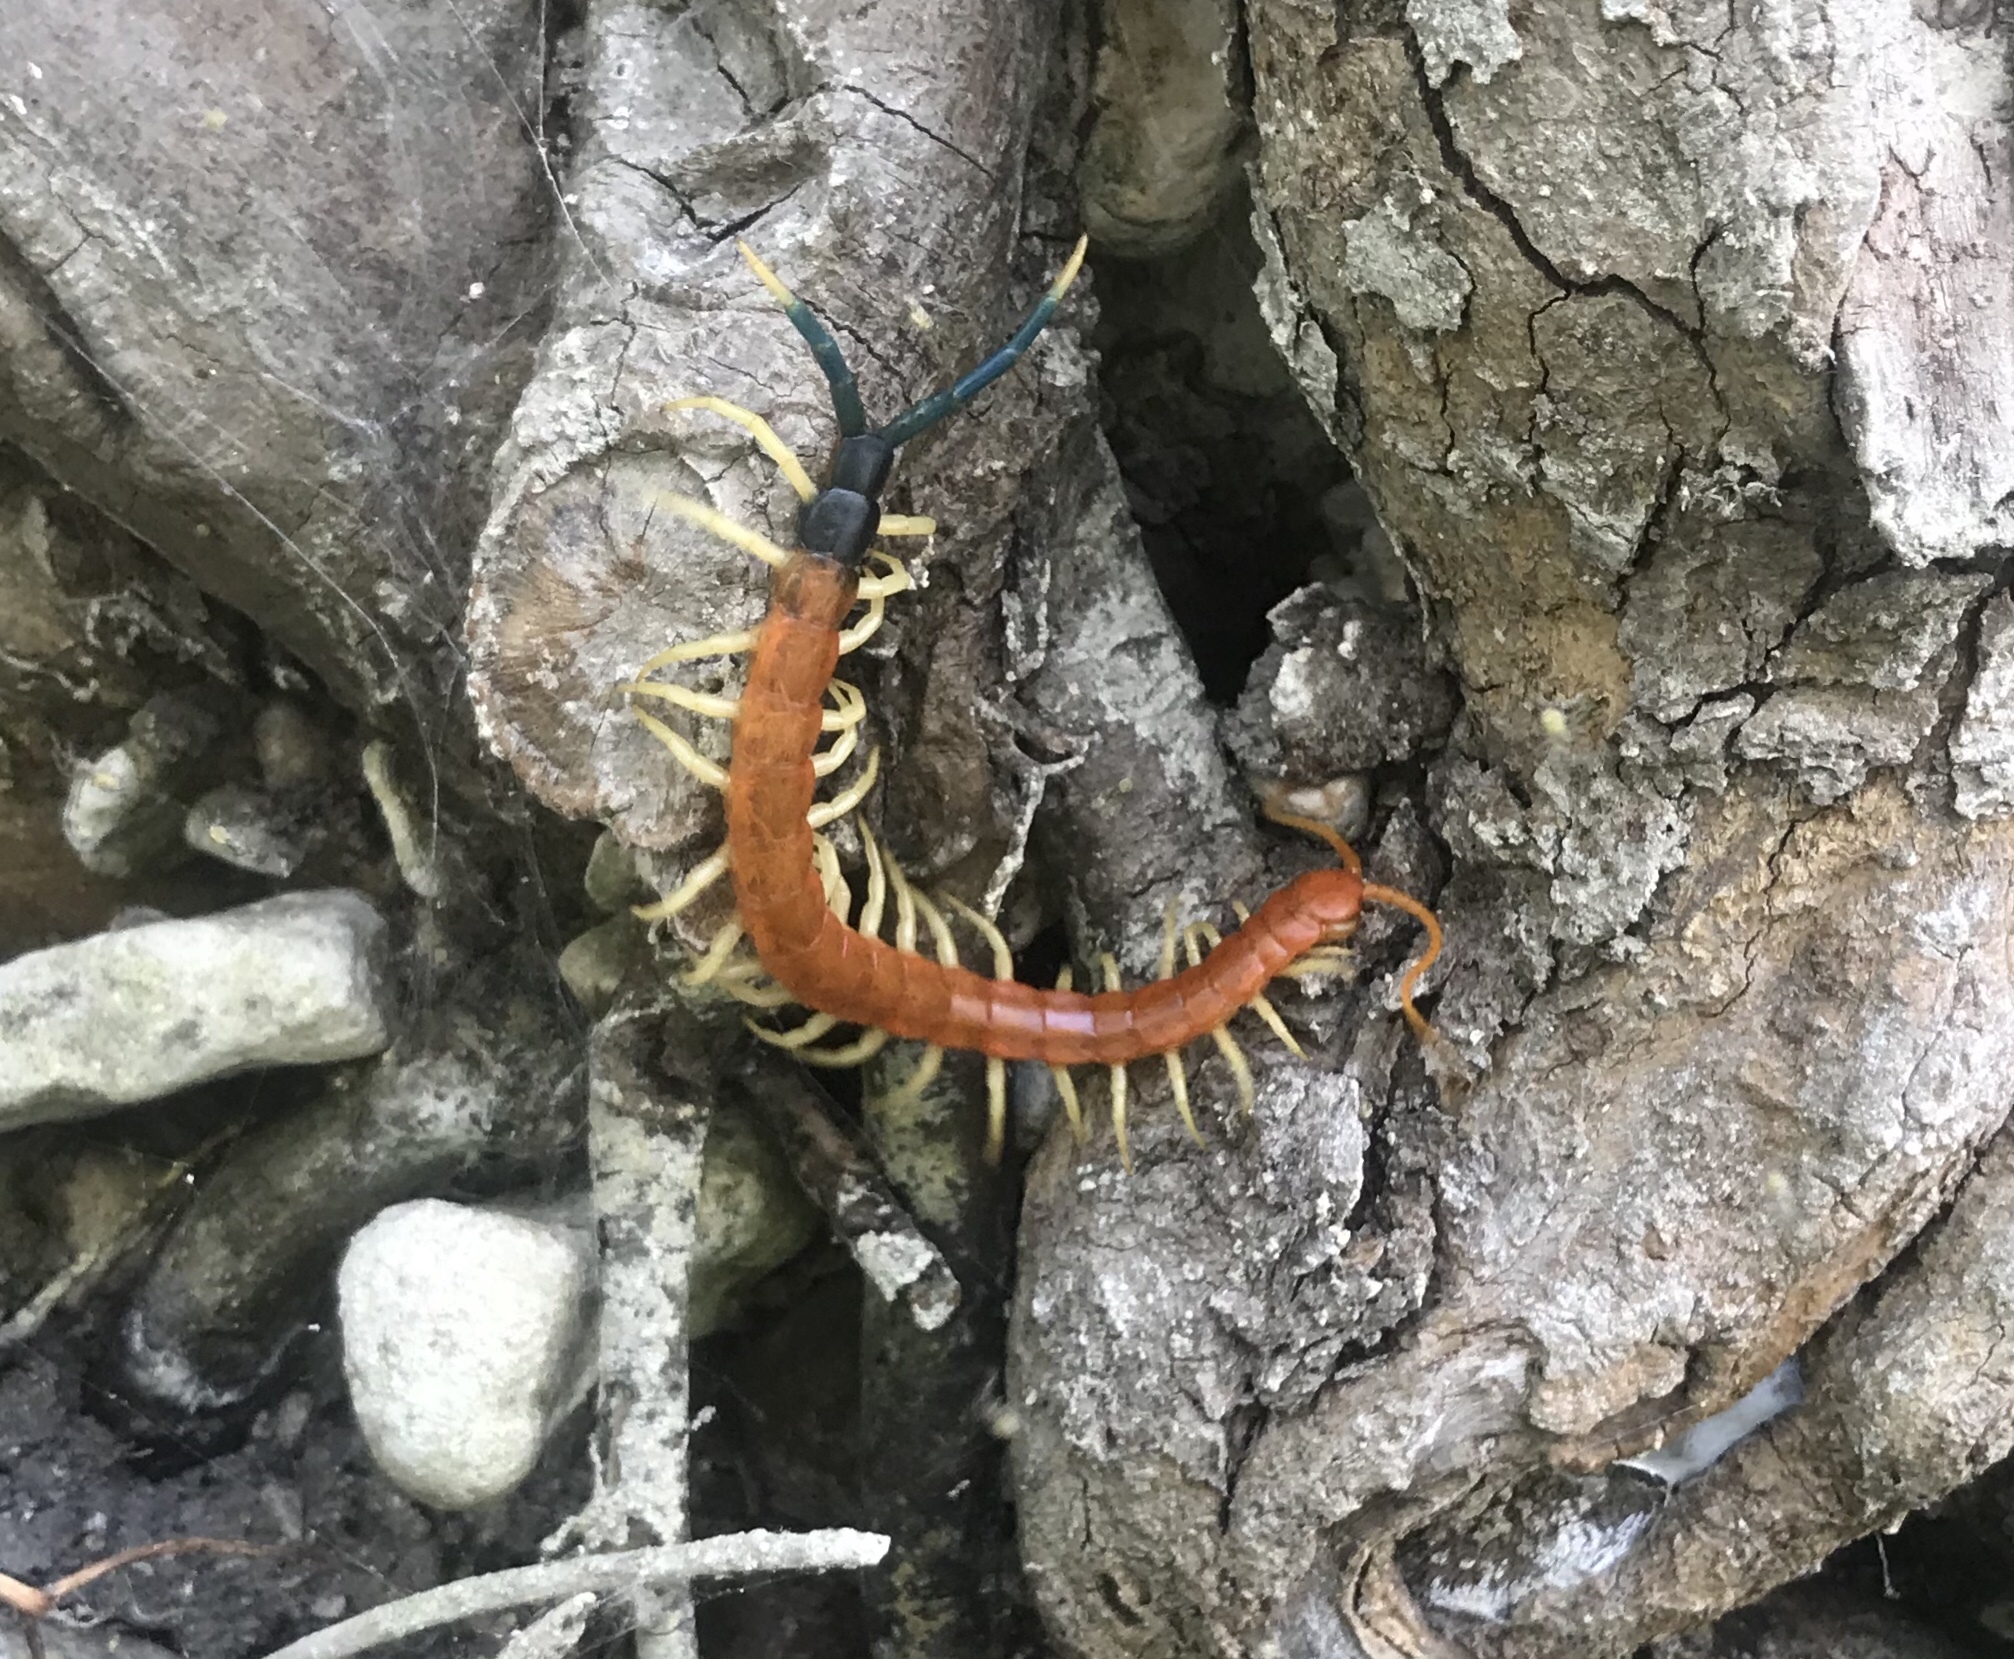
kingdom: Animalia
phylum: Arthropoda
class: Chilopoda
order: Scolopendromorpha
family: Scolopendridae
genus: Scolopendra
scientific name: Scolopendra heros
